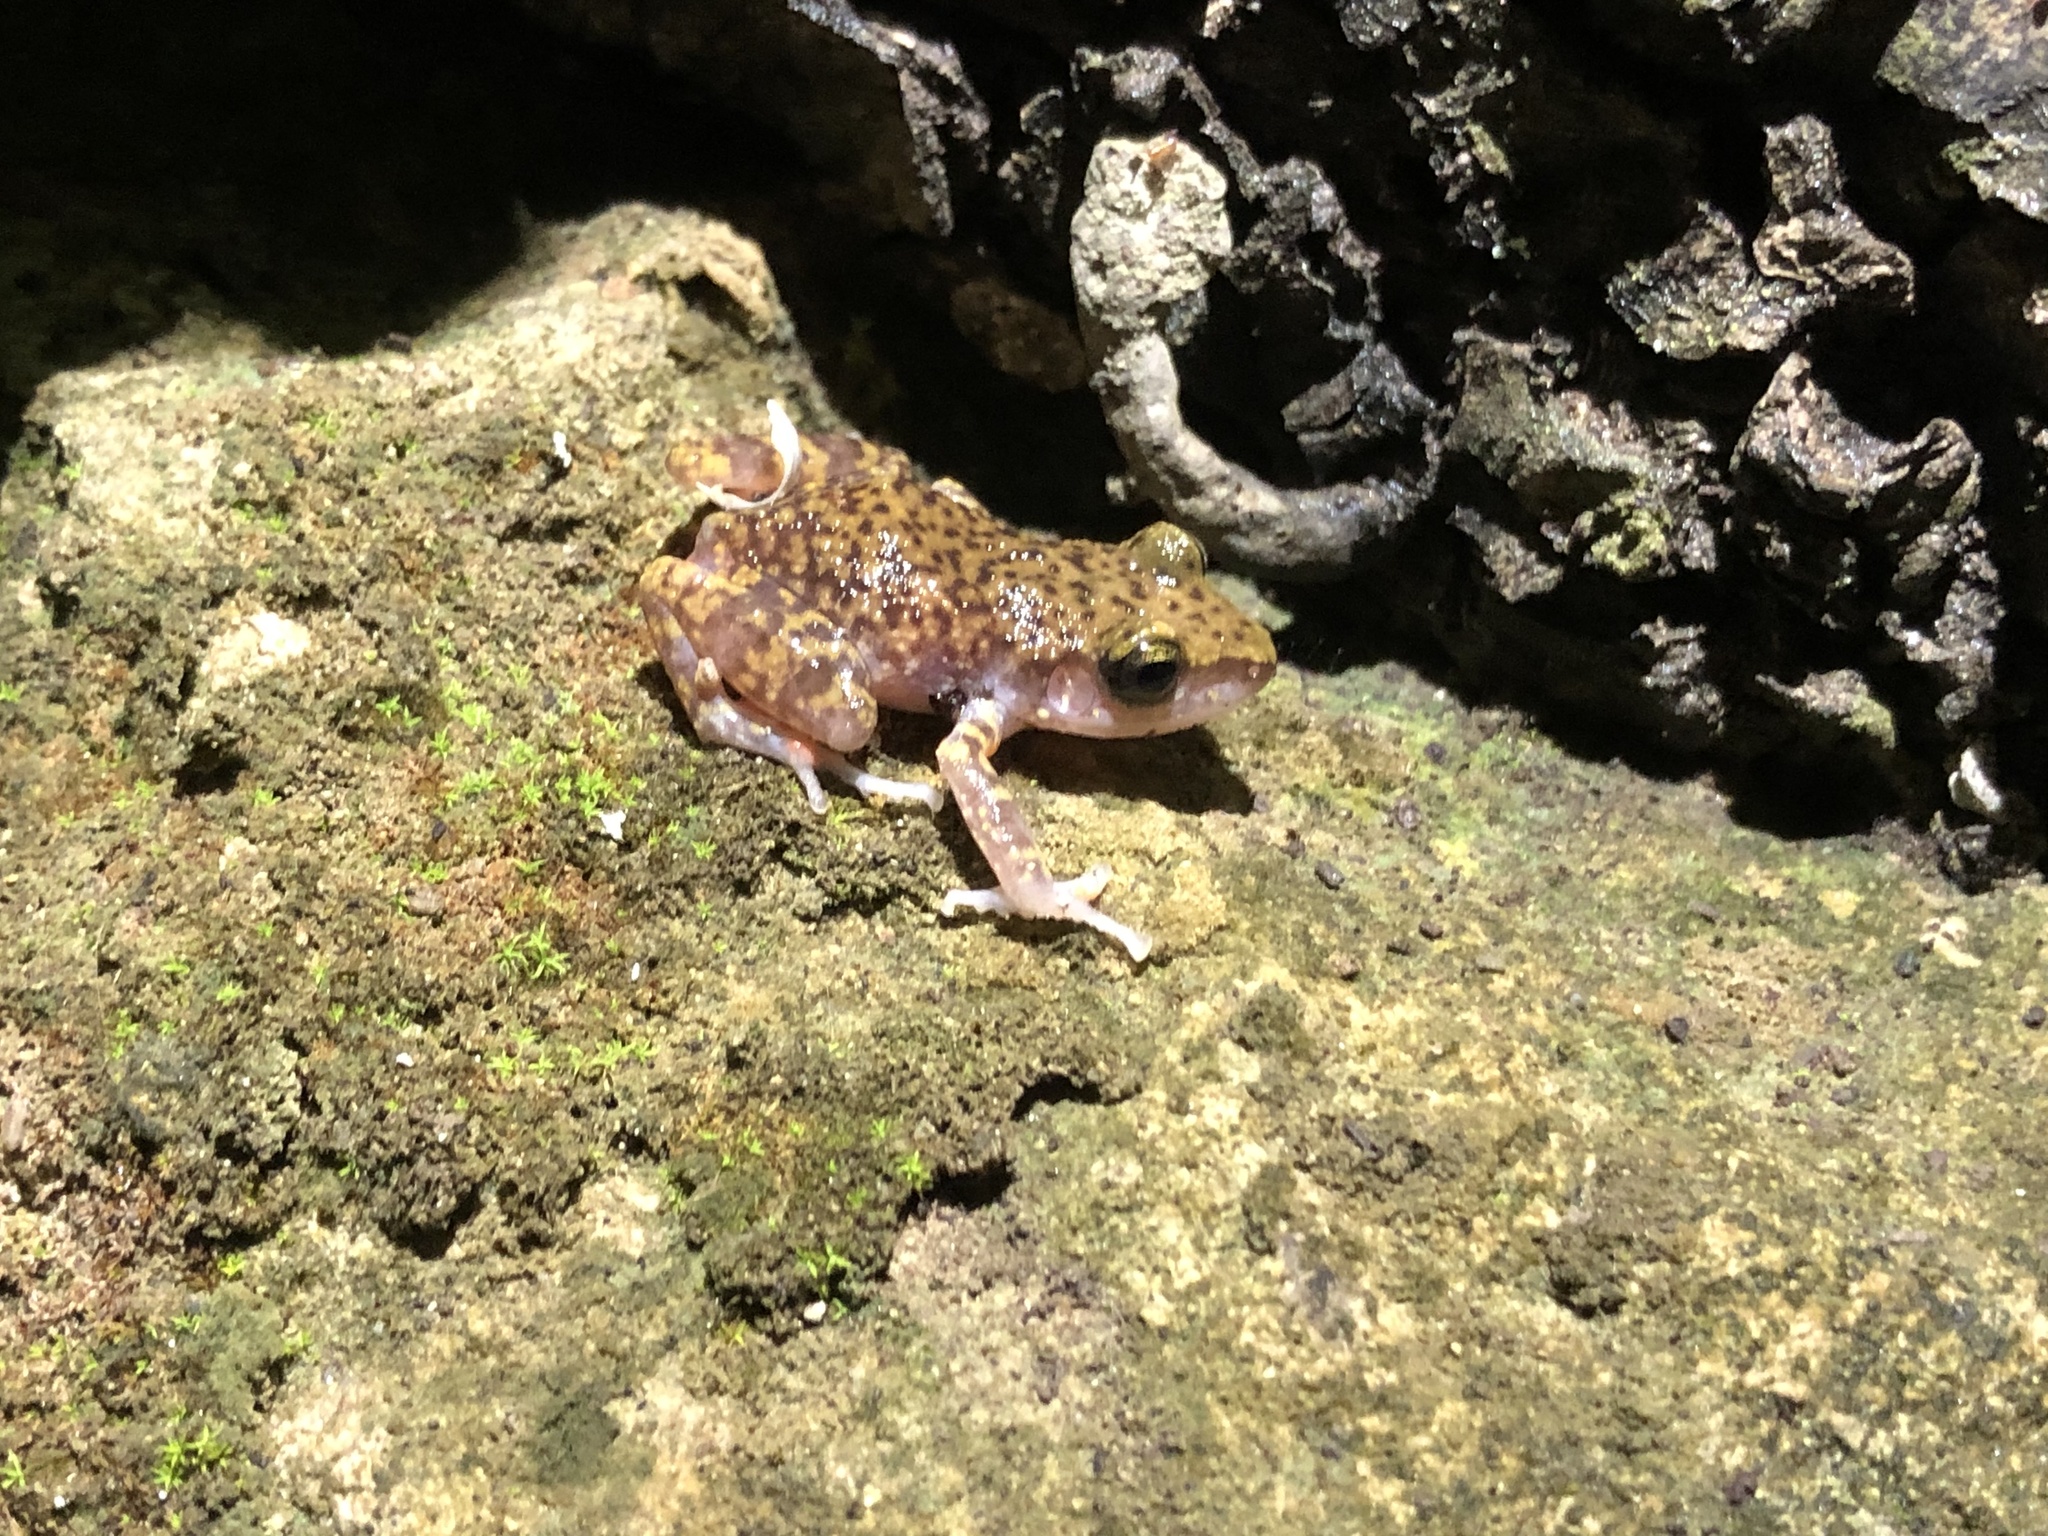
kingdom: Animalia
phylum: Chordata
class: Amphibia
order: Anura
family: Eleutherodactylidae
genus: Eleutherodactylus
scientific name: Eleutherodactylus marnockii
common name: Cliff chirping frog
